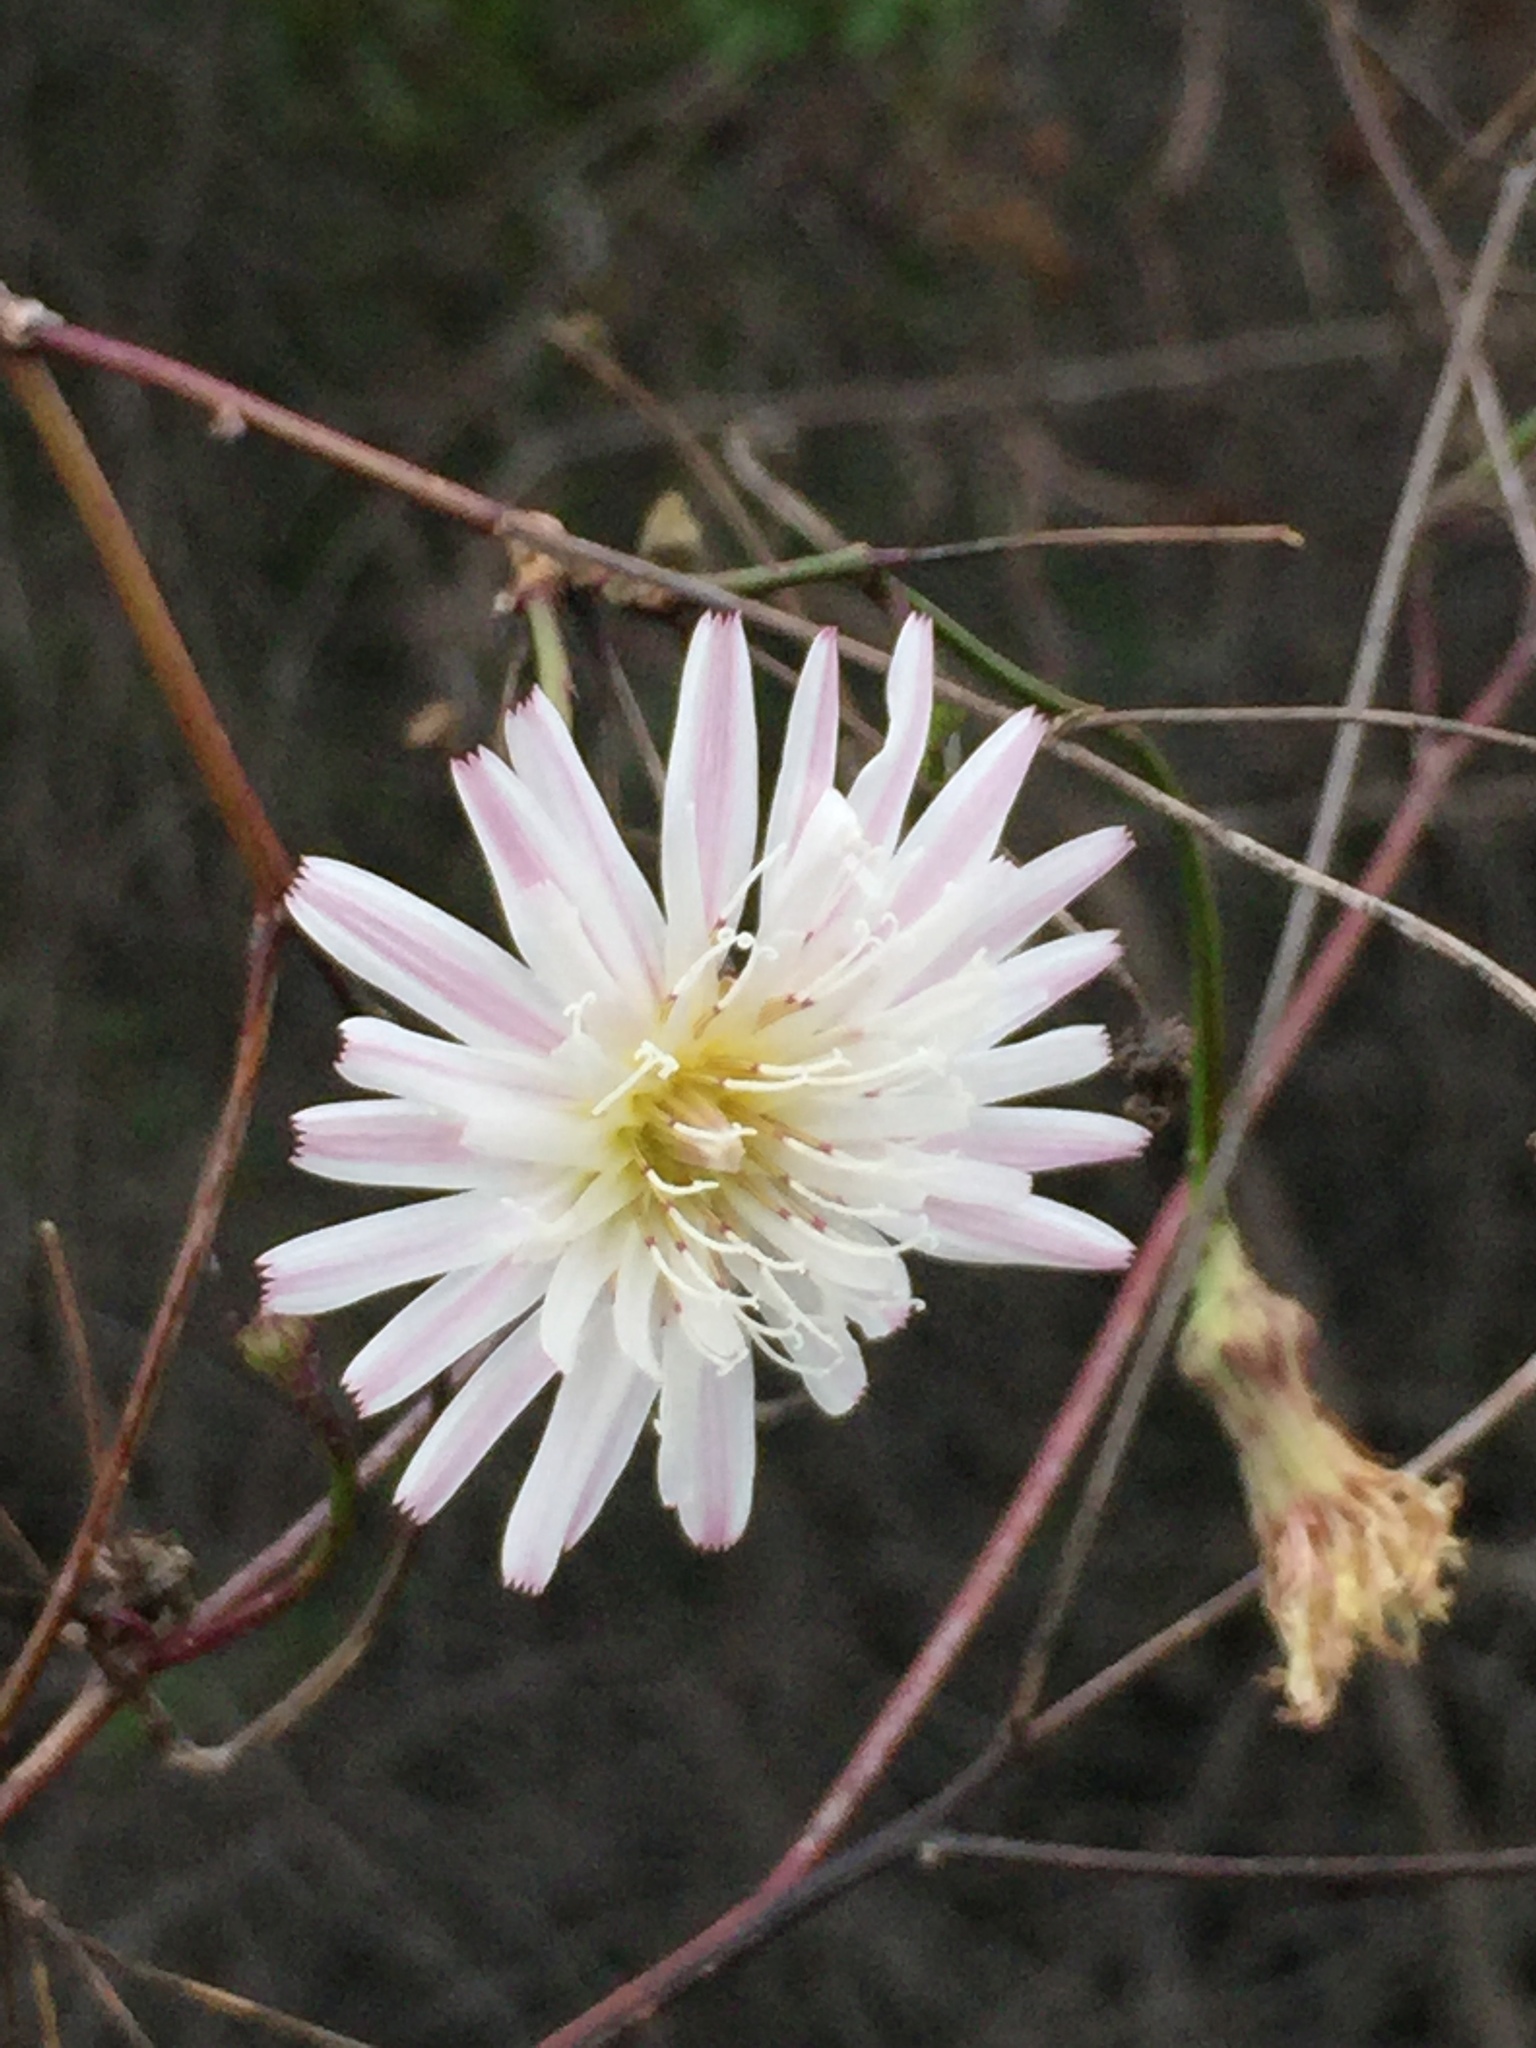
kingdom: Plantae
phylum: Tracheophyta
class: Magnoliopsida
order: Asterales
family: Asteraceae
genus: Malacothrix
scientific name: Malacothrix saxatilis
